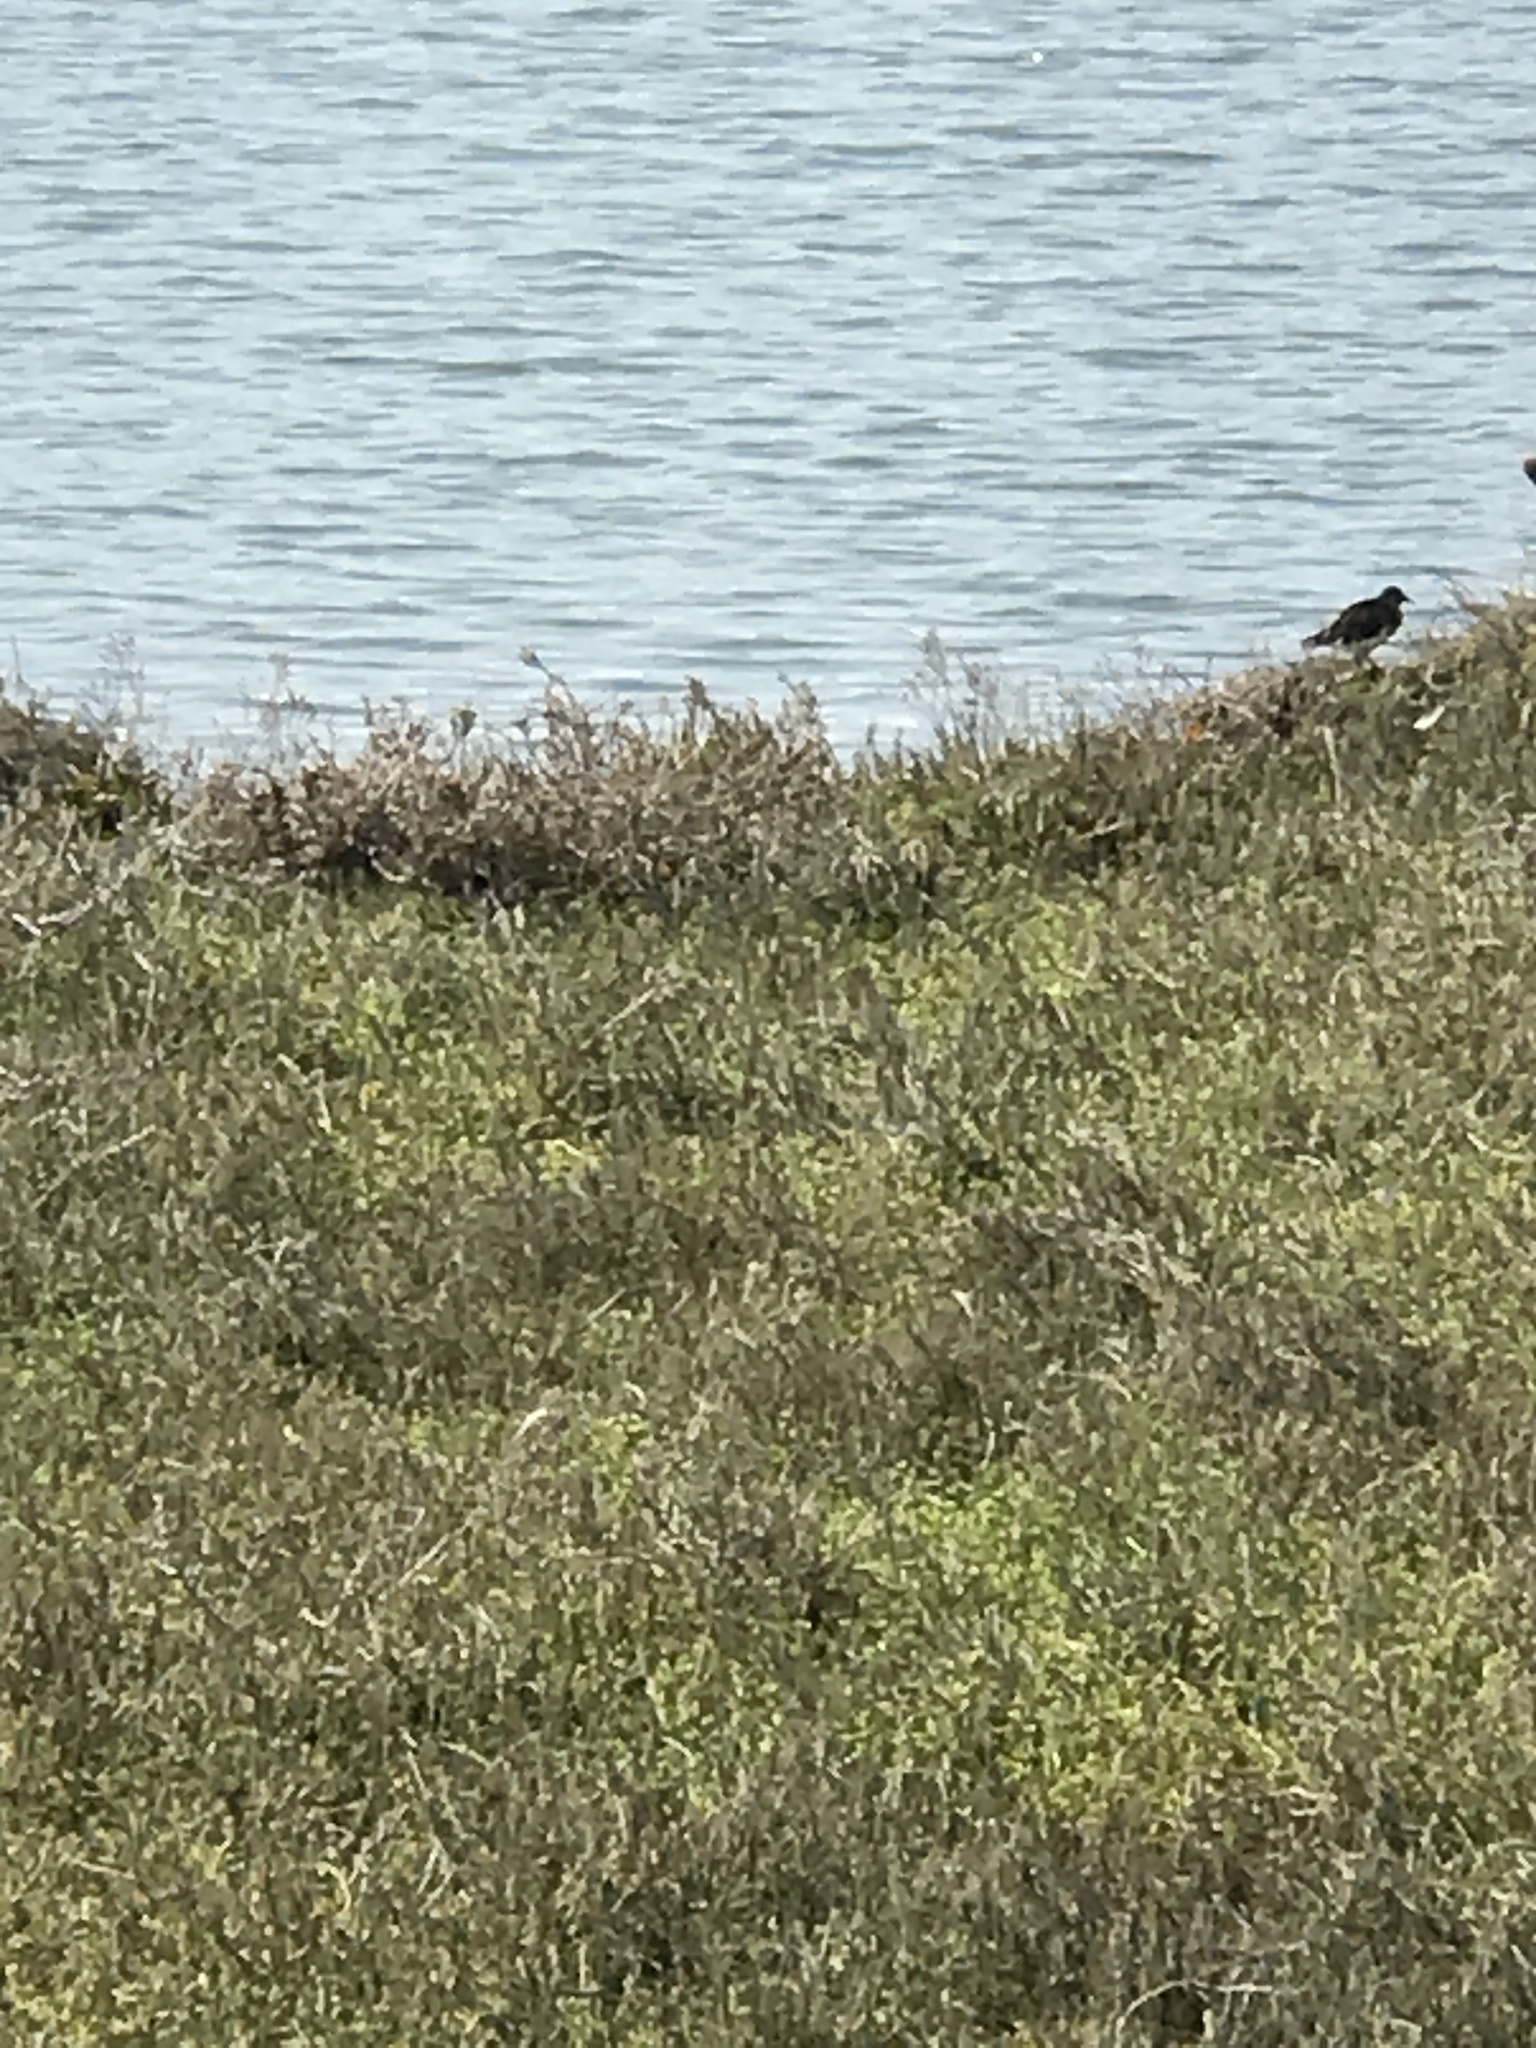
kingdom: Animalia
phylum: Chordata
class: Aves
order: Charadriiformes
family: Scolopacidae
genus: Arenaria
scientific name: Arenaria melanocephala
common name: Black turnstone
